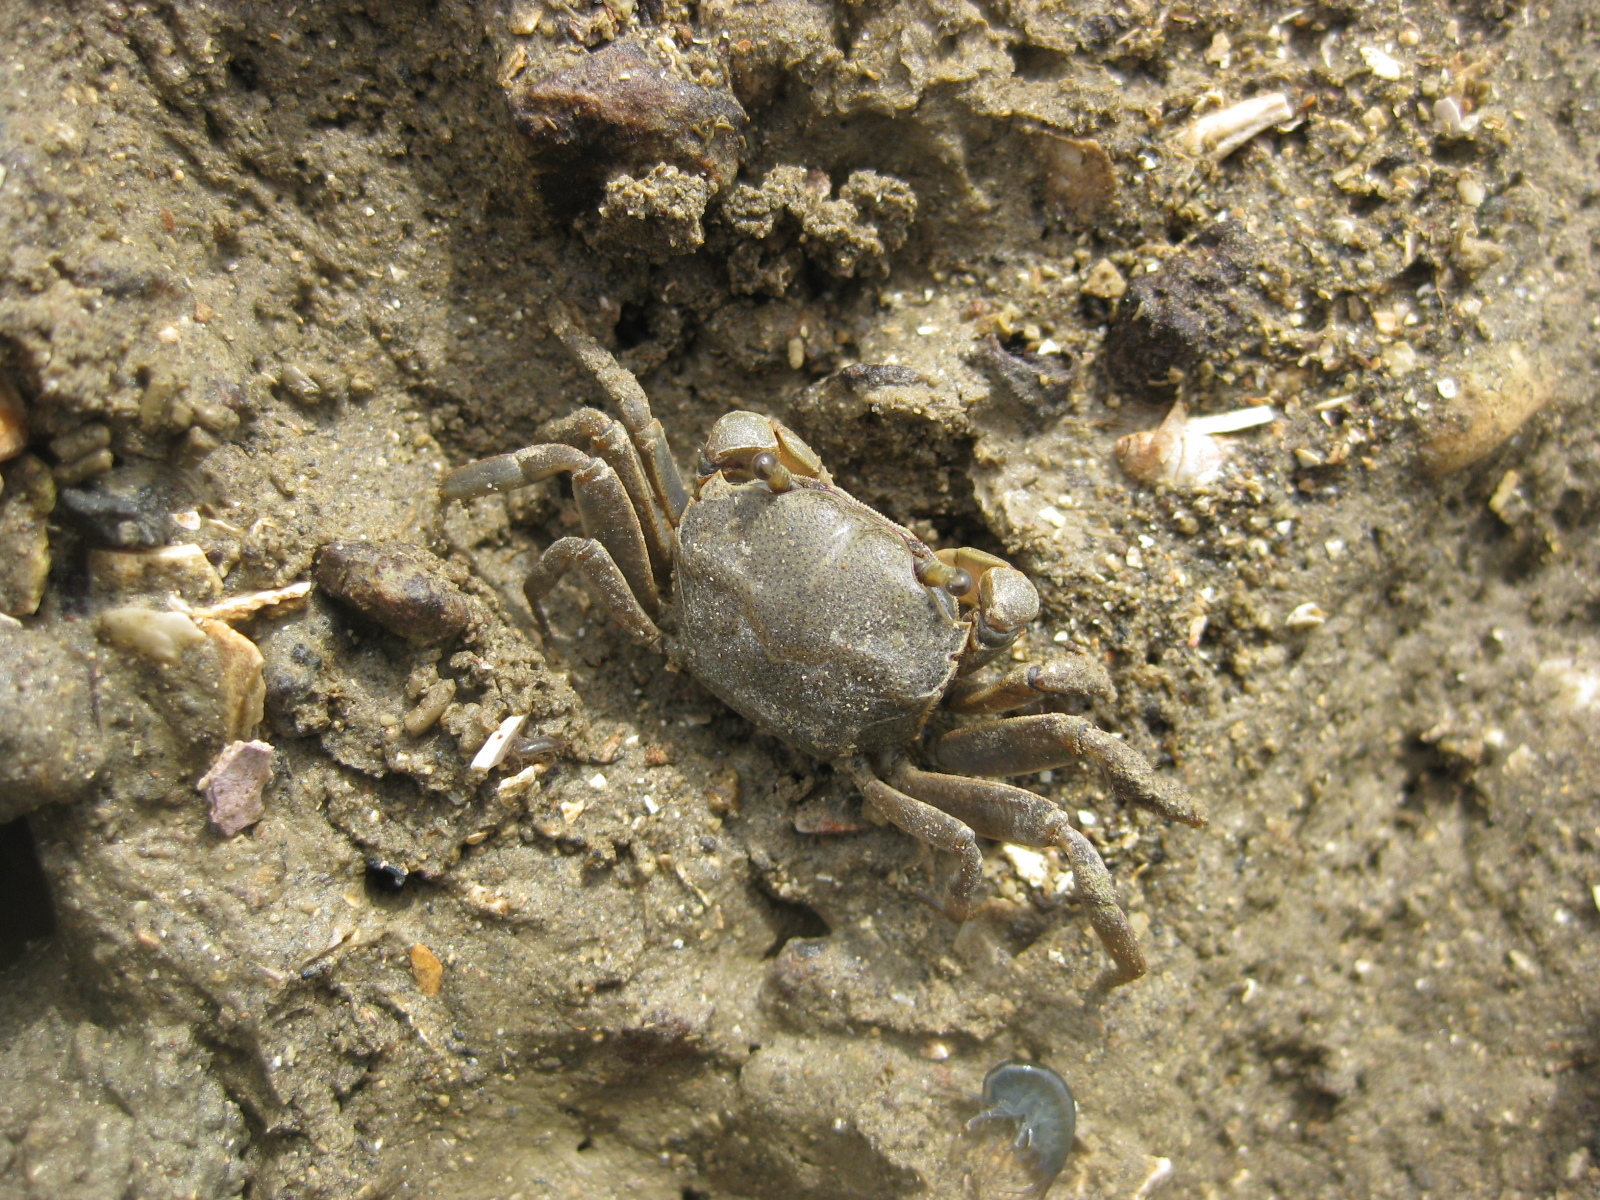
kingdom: Animalia
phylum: Arthropoda
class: Malacostraca
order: Decapoda
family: Varunidae
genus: Austrohelice
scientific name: Austrohelice crassa
